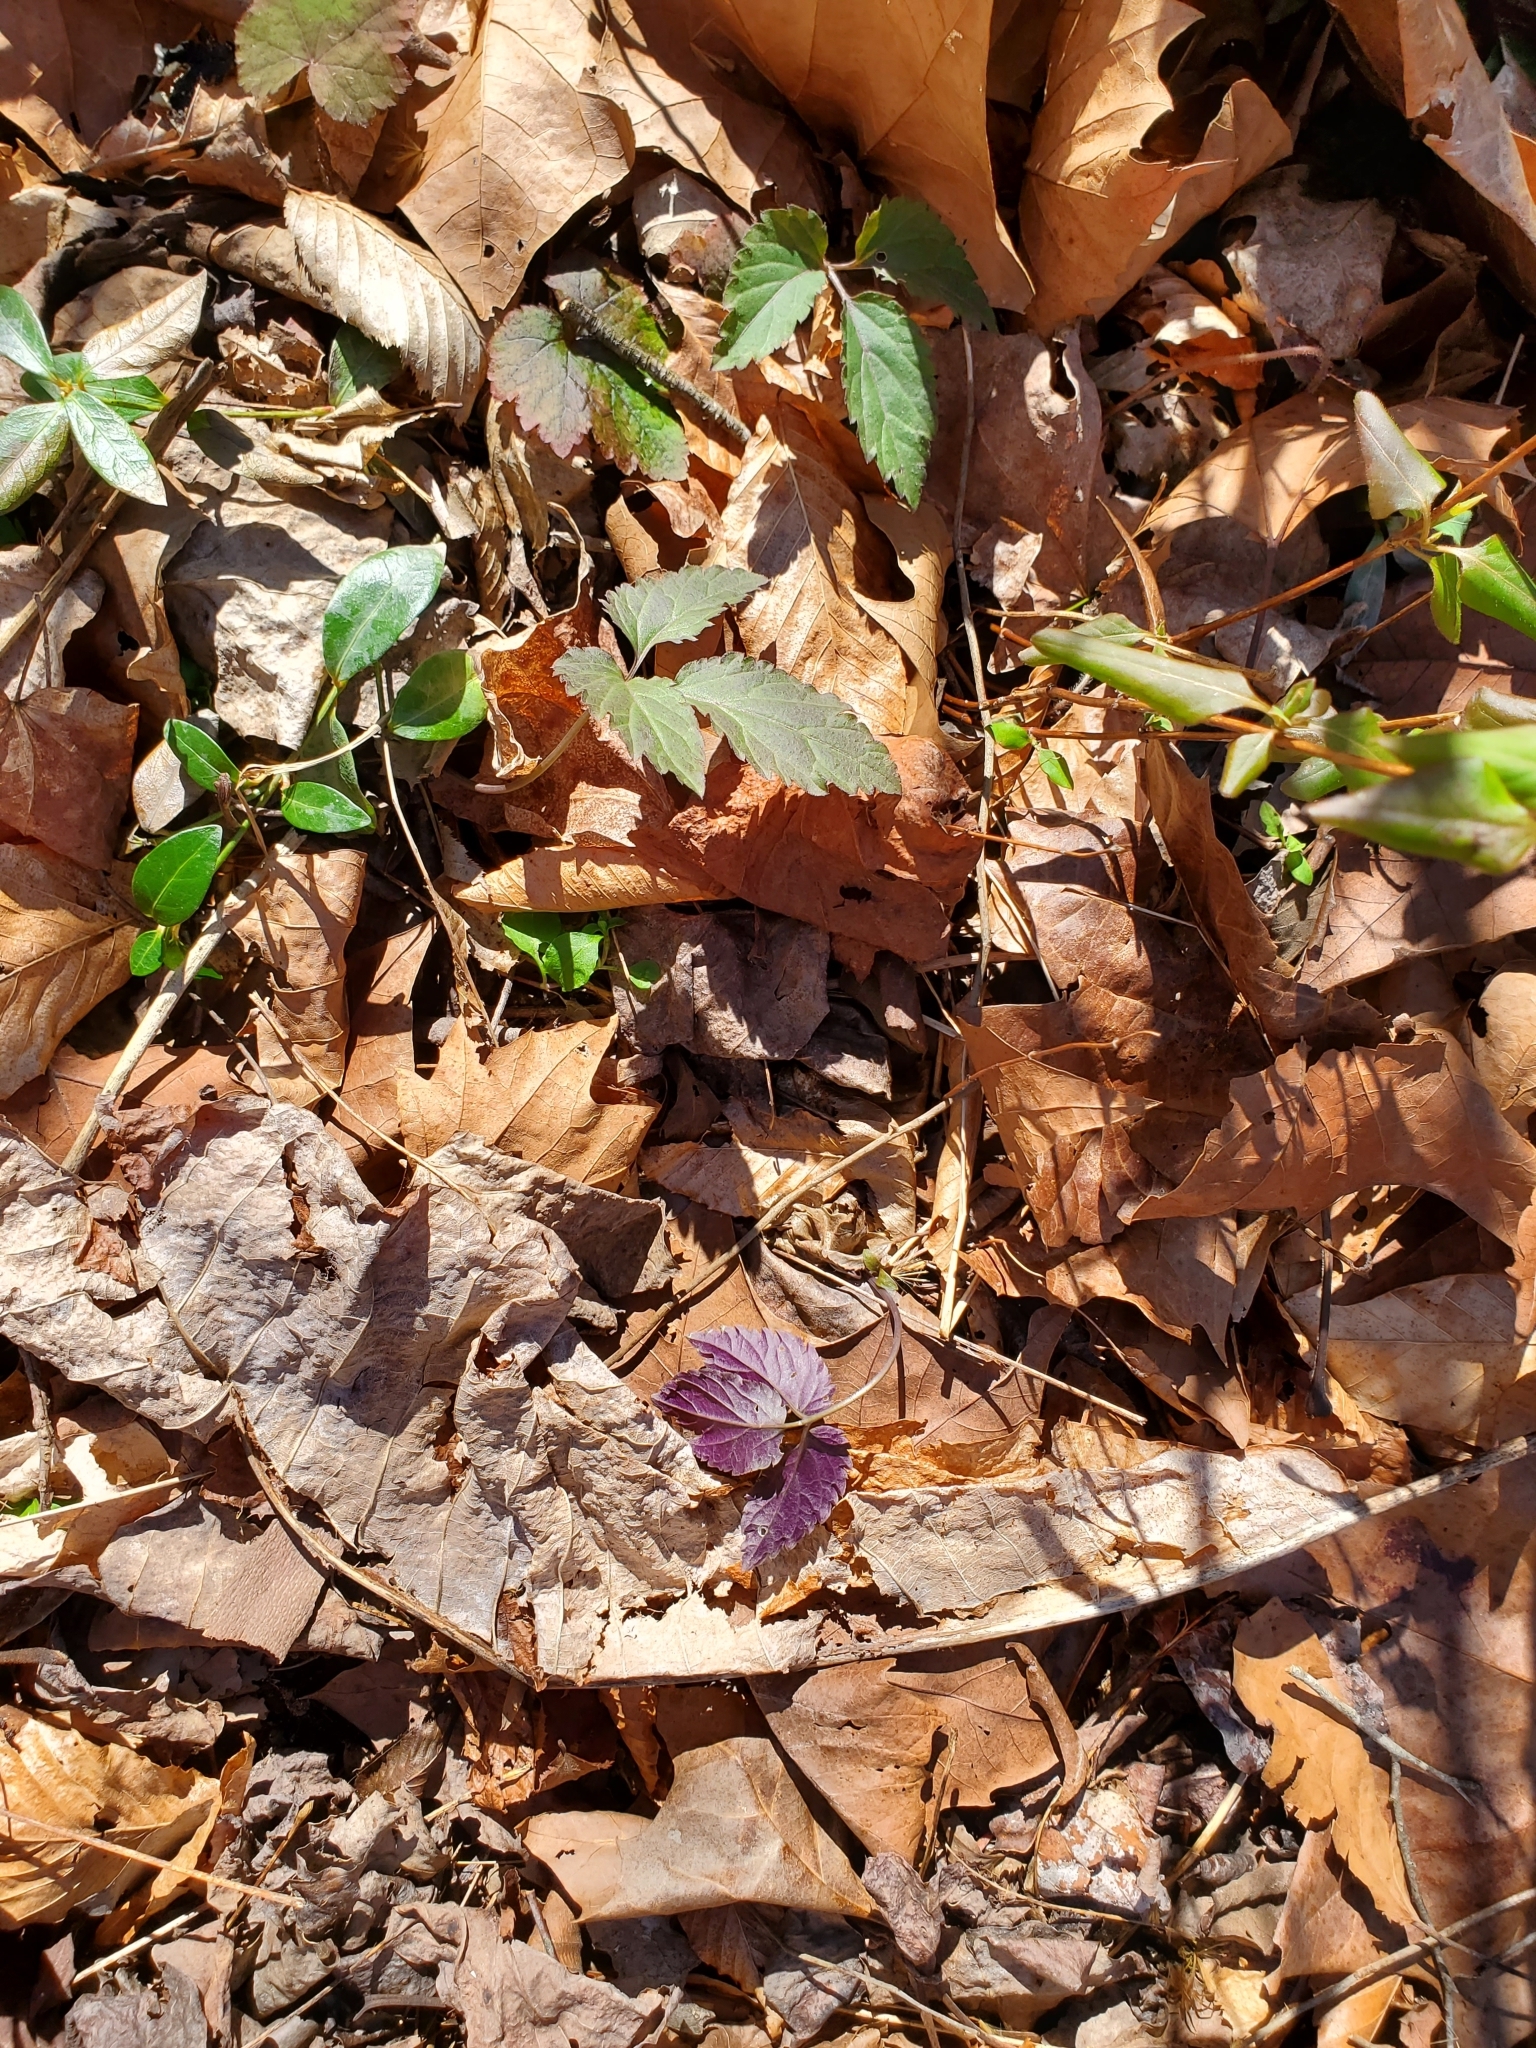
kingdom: Plantae
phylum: Tracheophyta
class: Magnoliopsida
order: Brassicales
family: Brassicaceae
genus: Cardamine
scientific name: Cardamine diphylla
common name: Broad-leaved toothwort
